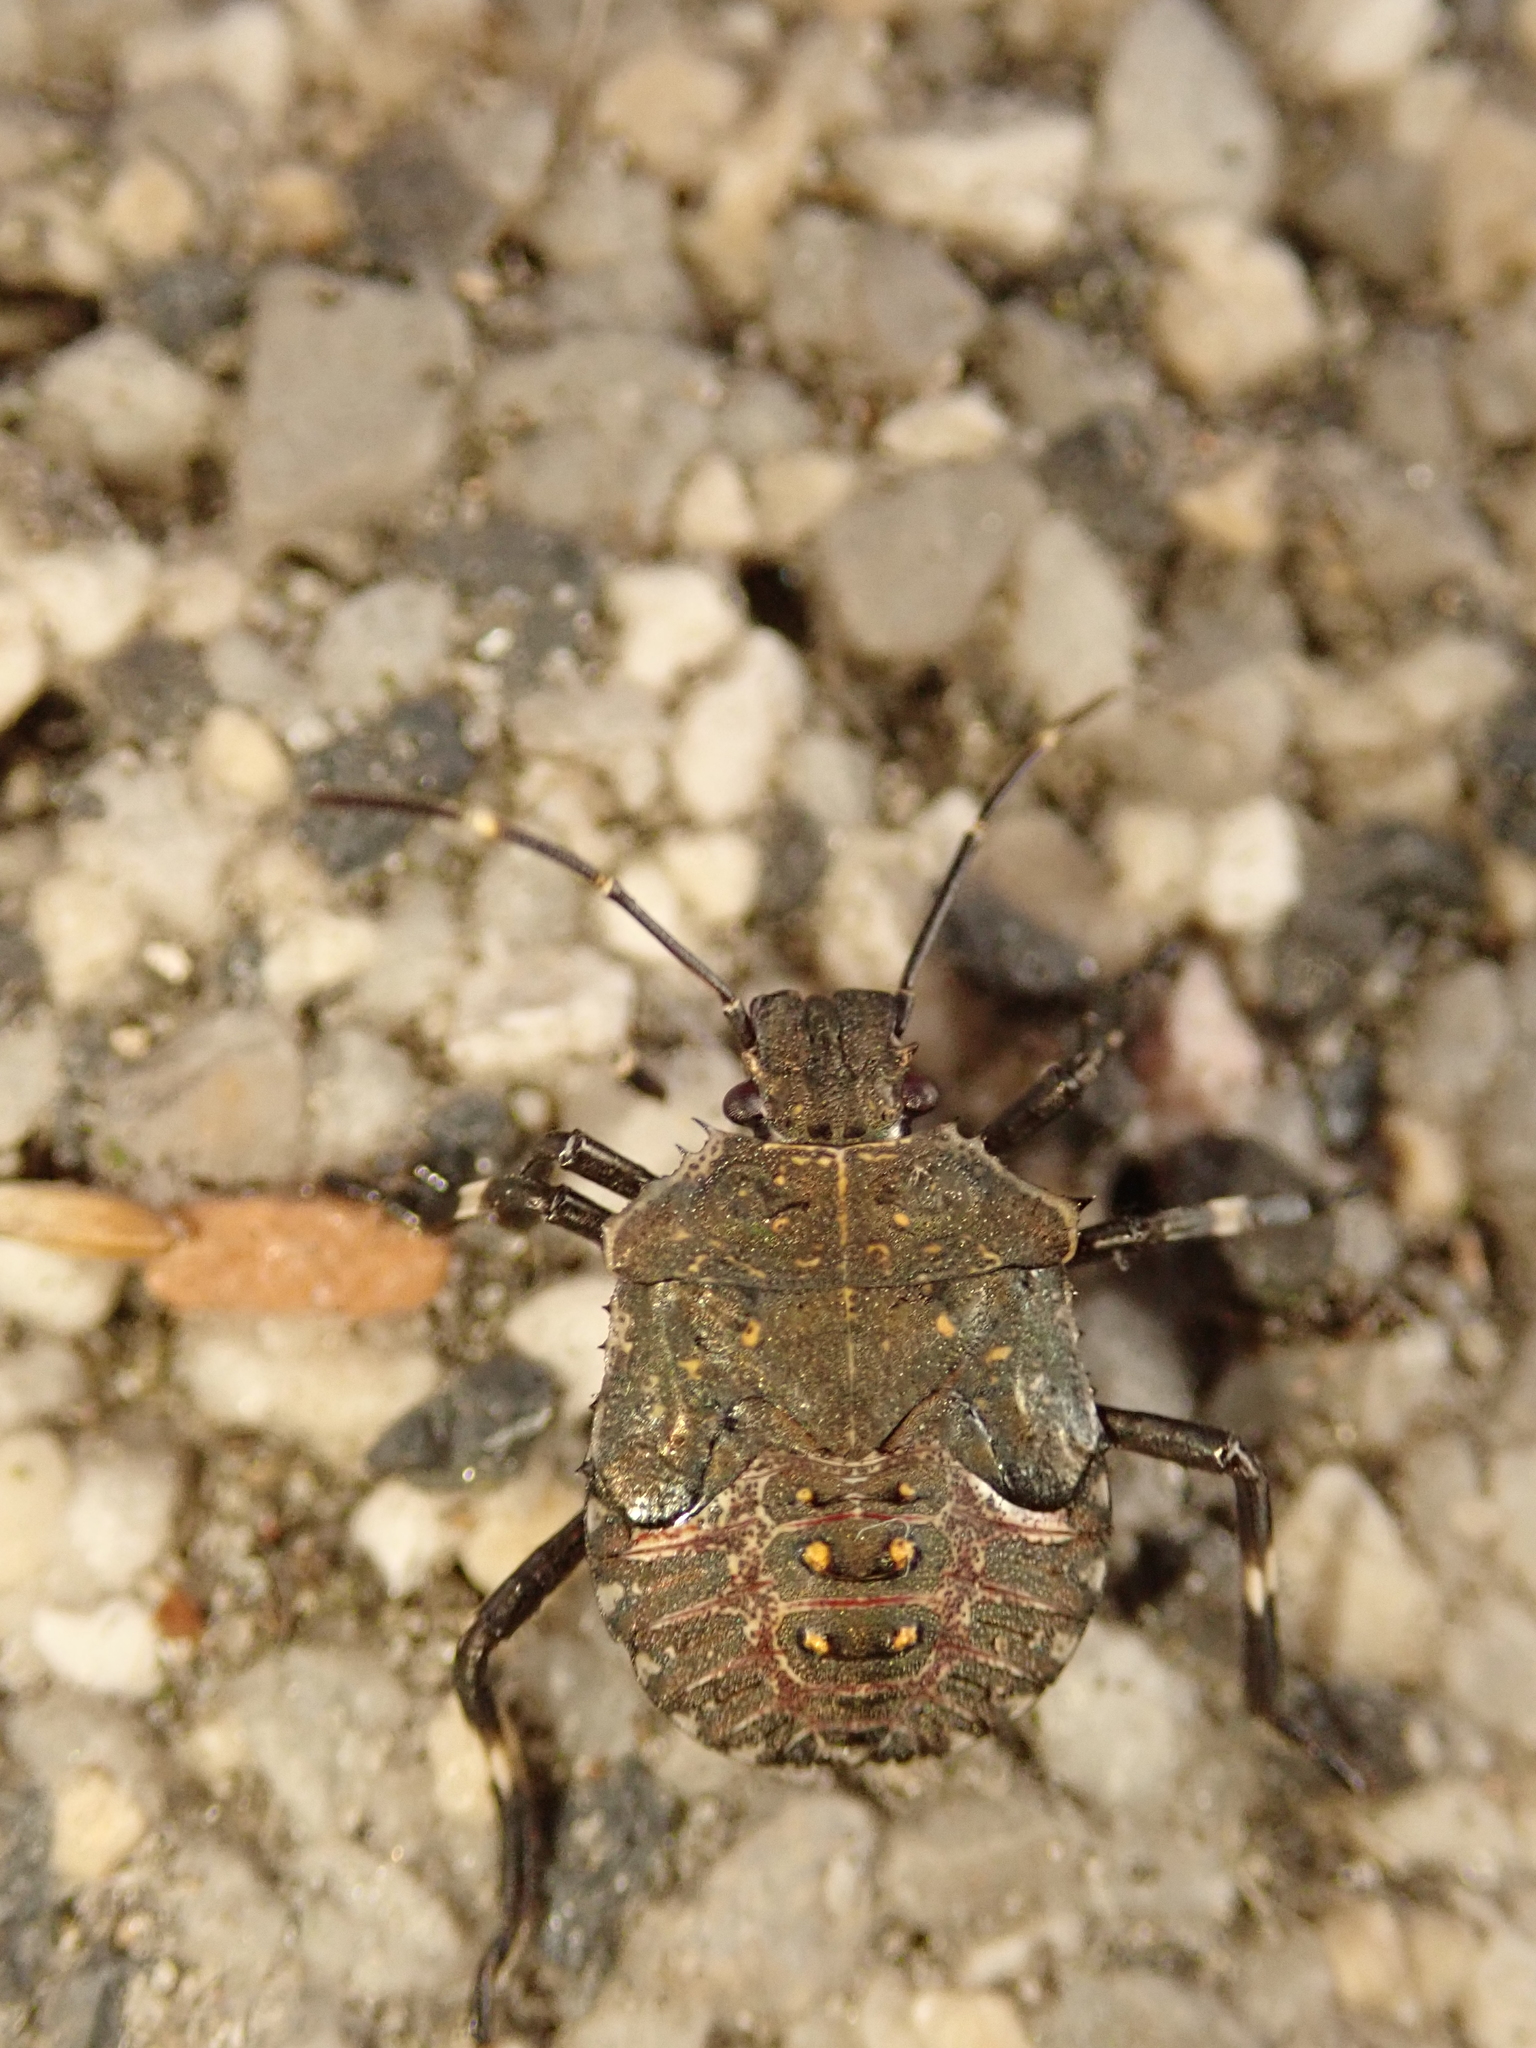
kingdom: Animalia
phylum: Arthropoda
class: Insecta
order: Hemiptera
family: Pentatomidae
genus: Halyomorpha
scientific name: Halyomorpha halys
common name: Brown marmorated stink bug
